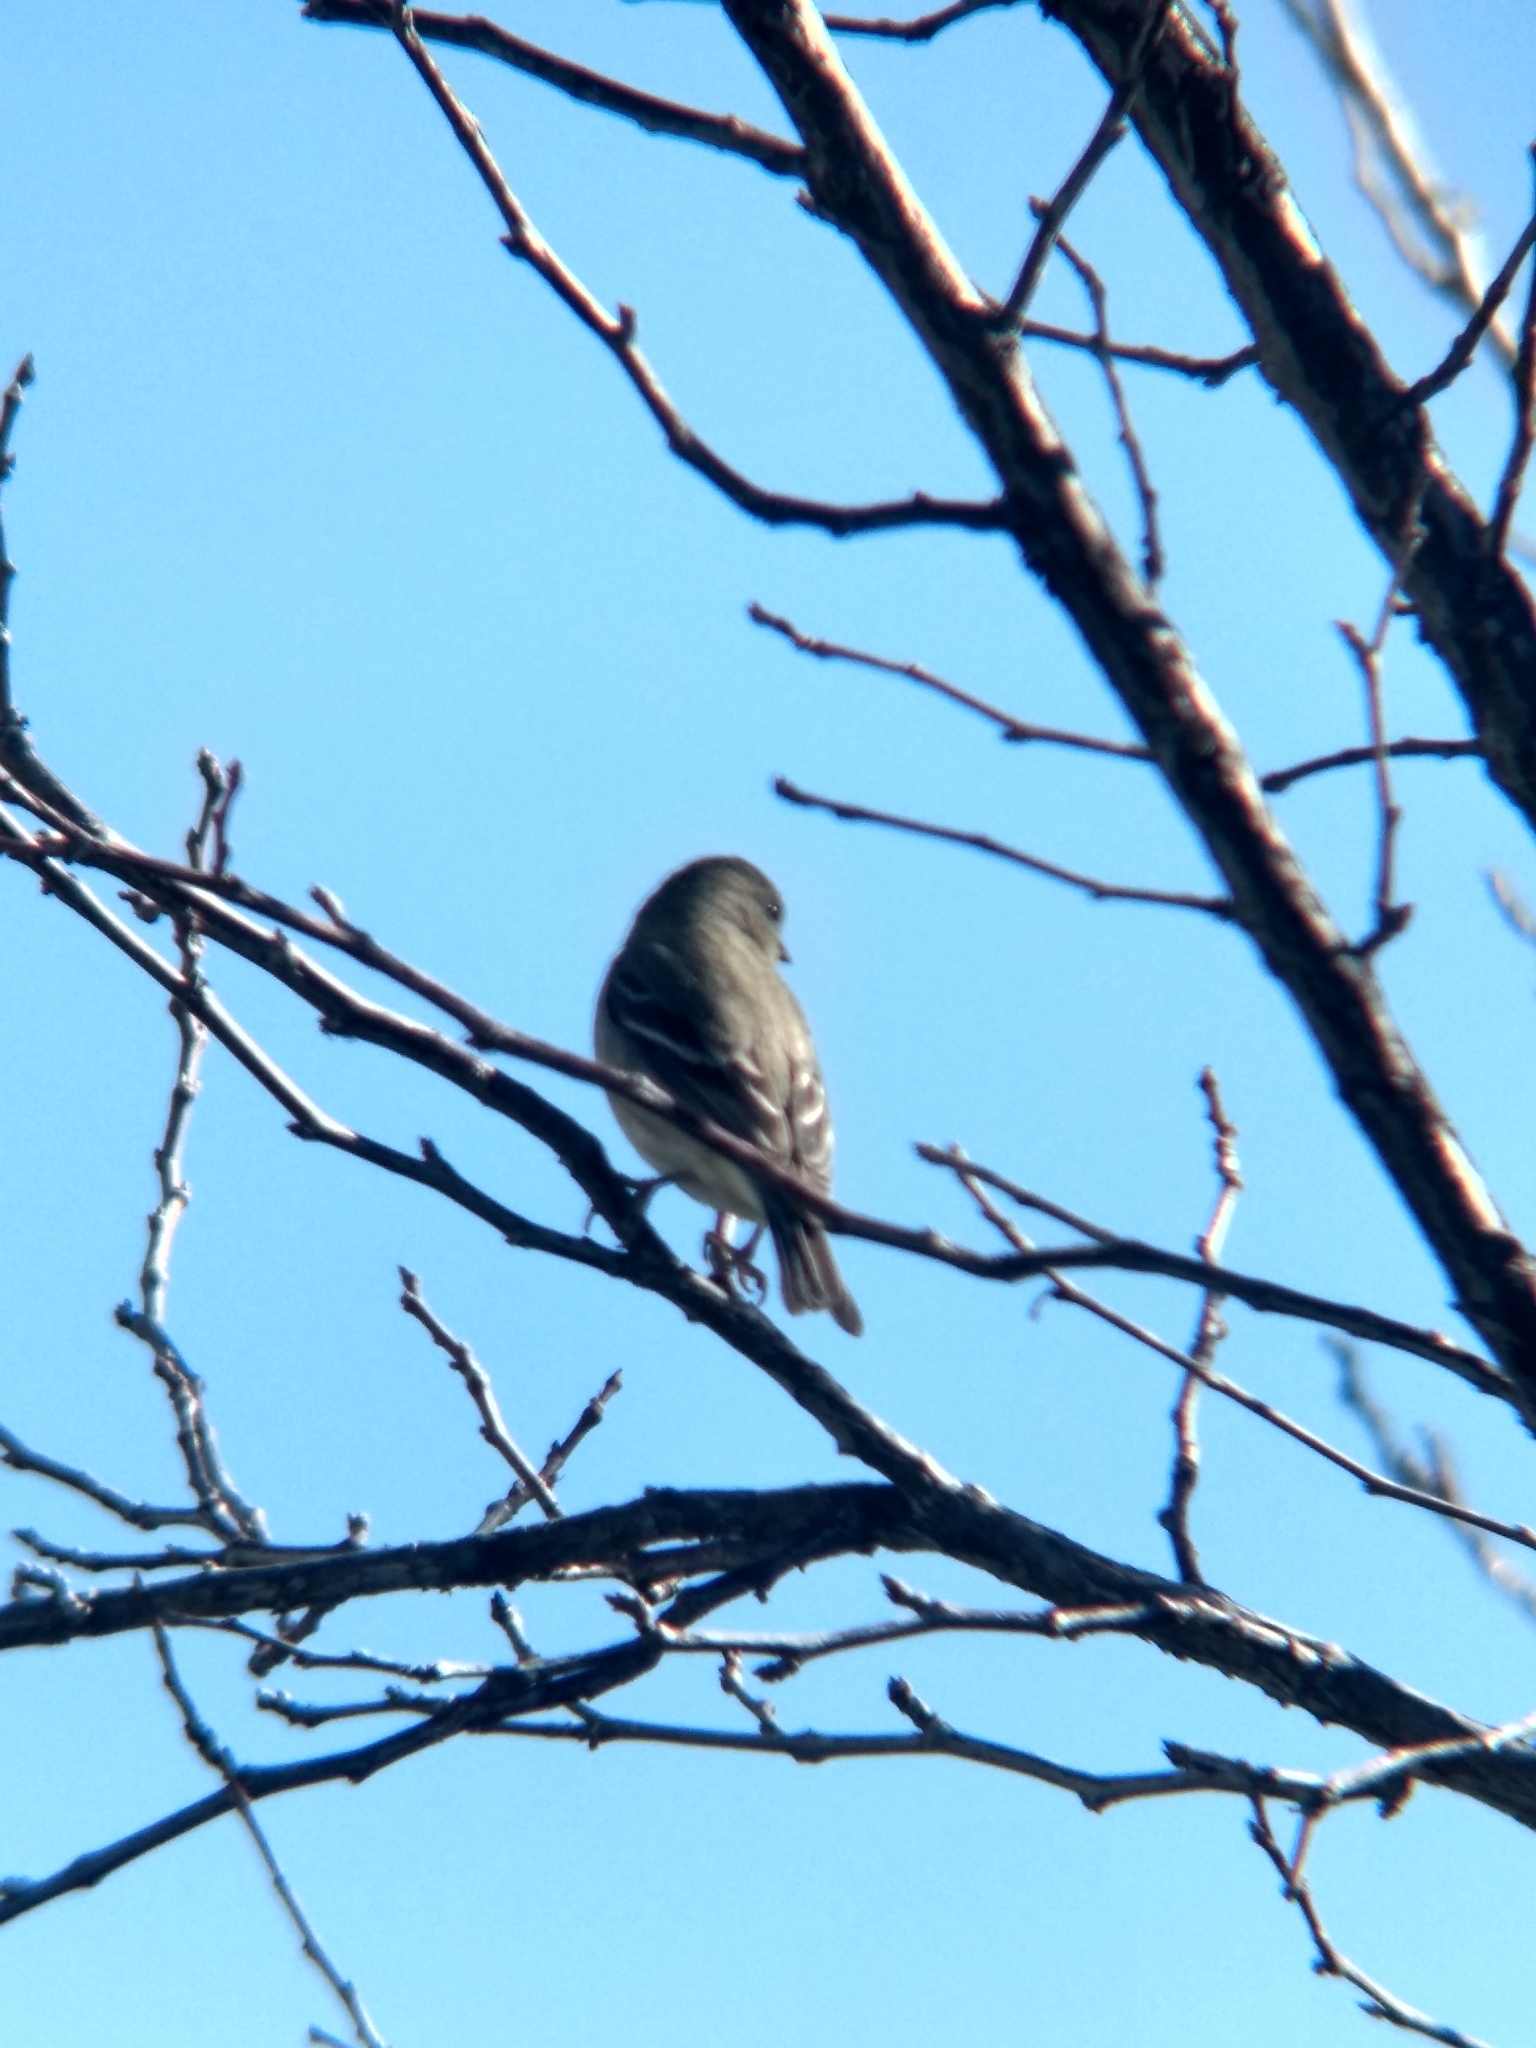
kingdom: Animalia
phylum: Chordata
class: Aves
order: Passeriformes
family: Fringillidae
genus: Spinus
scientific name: Spinus psaltria
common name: Lesser goldfinch
